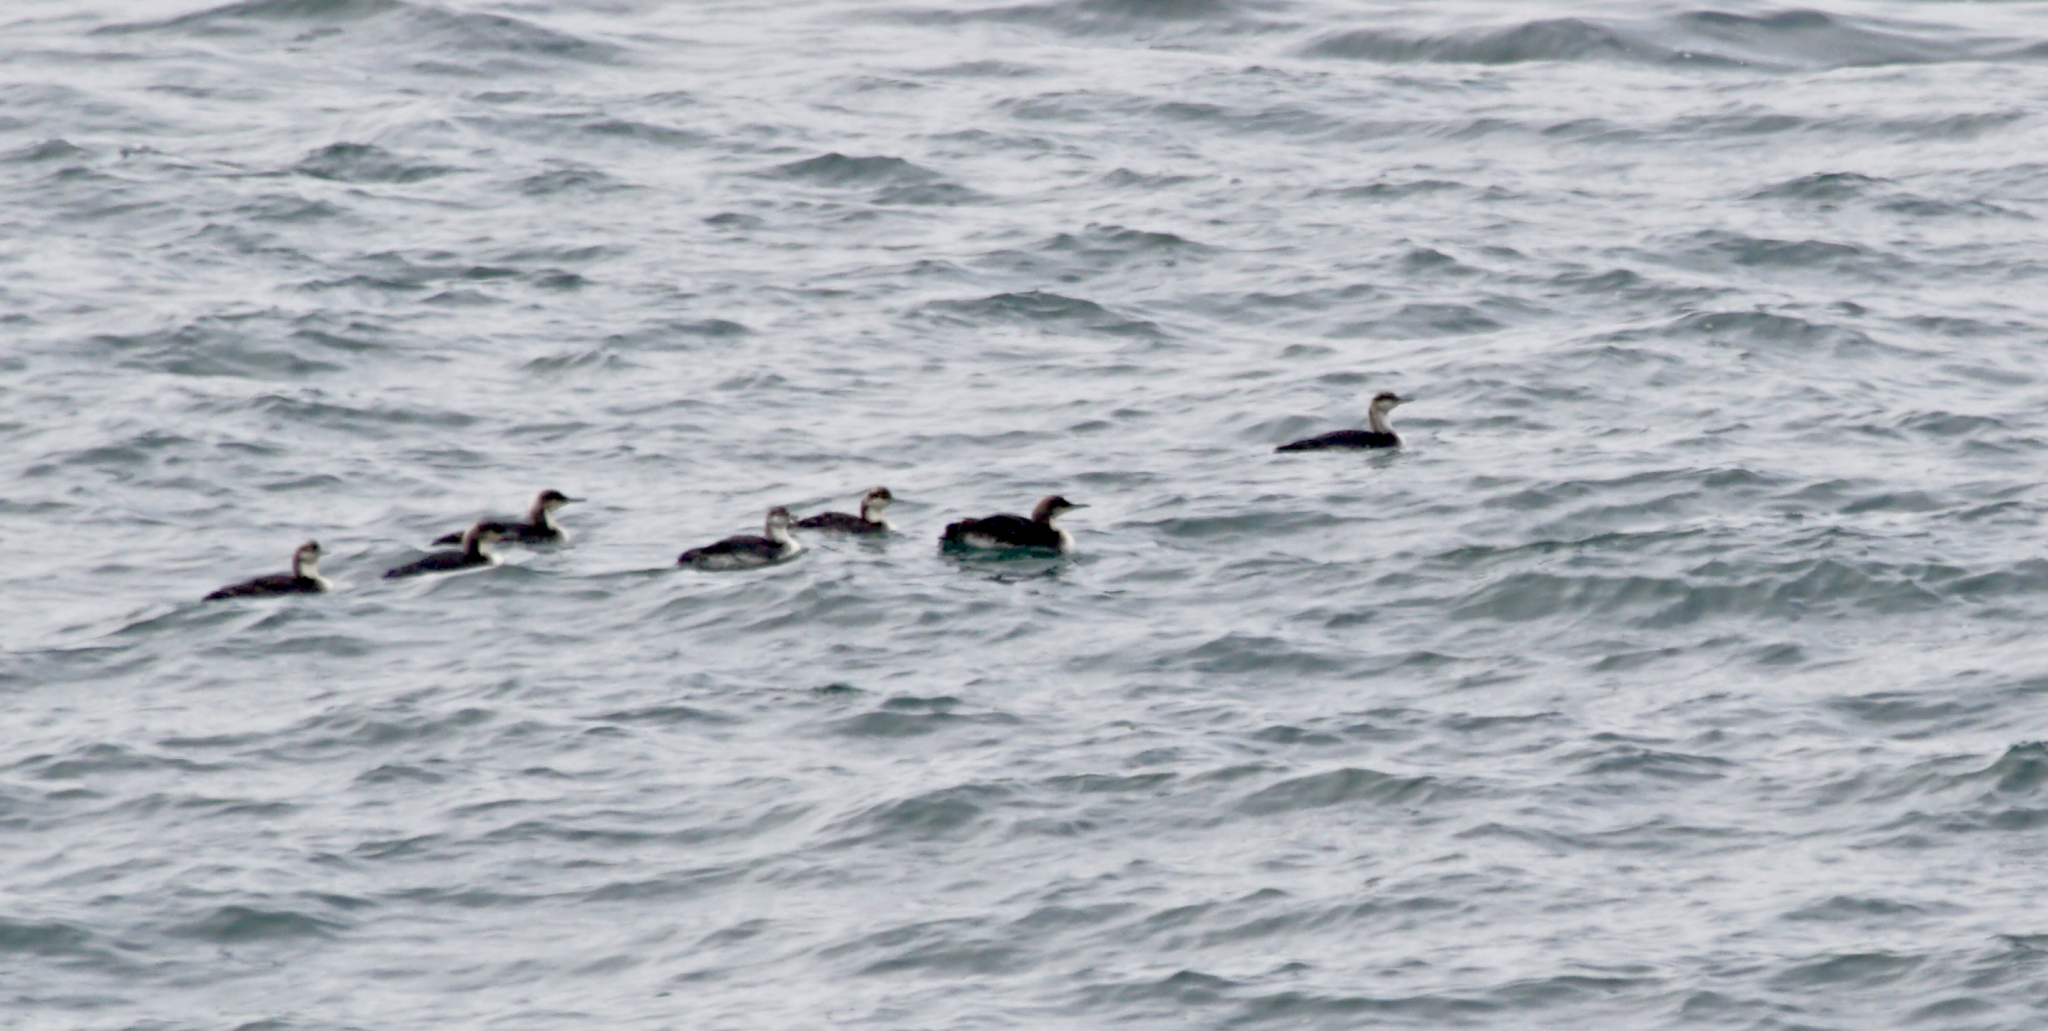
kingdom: Animalia
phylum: Chordata
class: Aves
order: Gaviiformes
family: Gaviidae
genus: Gavia
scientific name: Gavia pacifica
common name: Pacific loon
